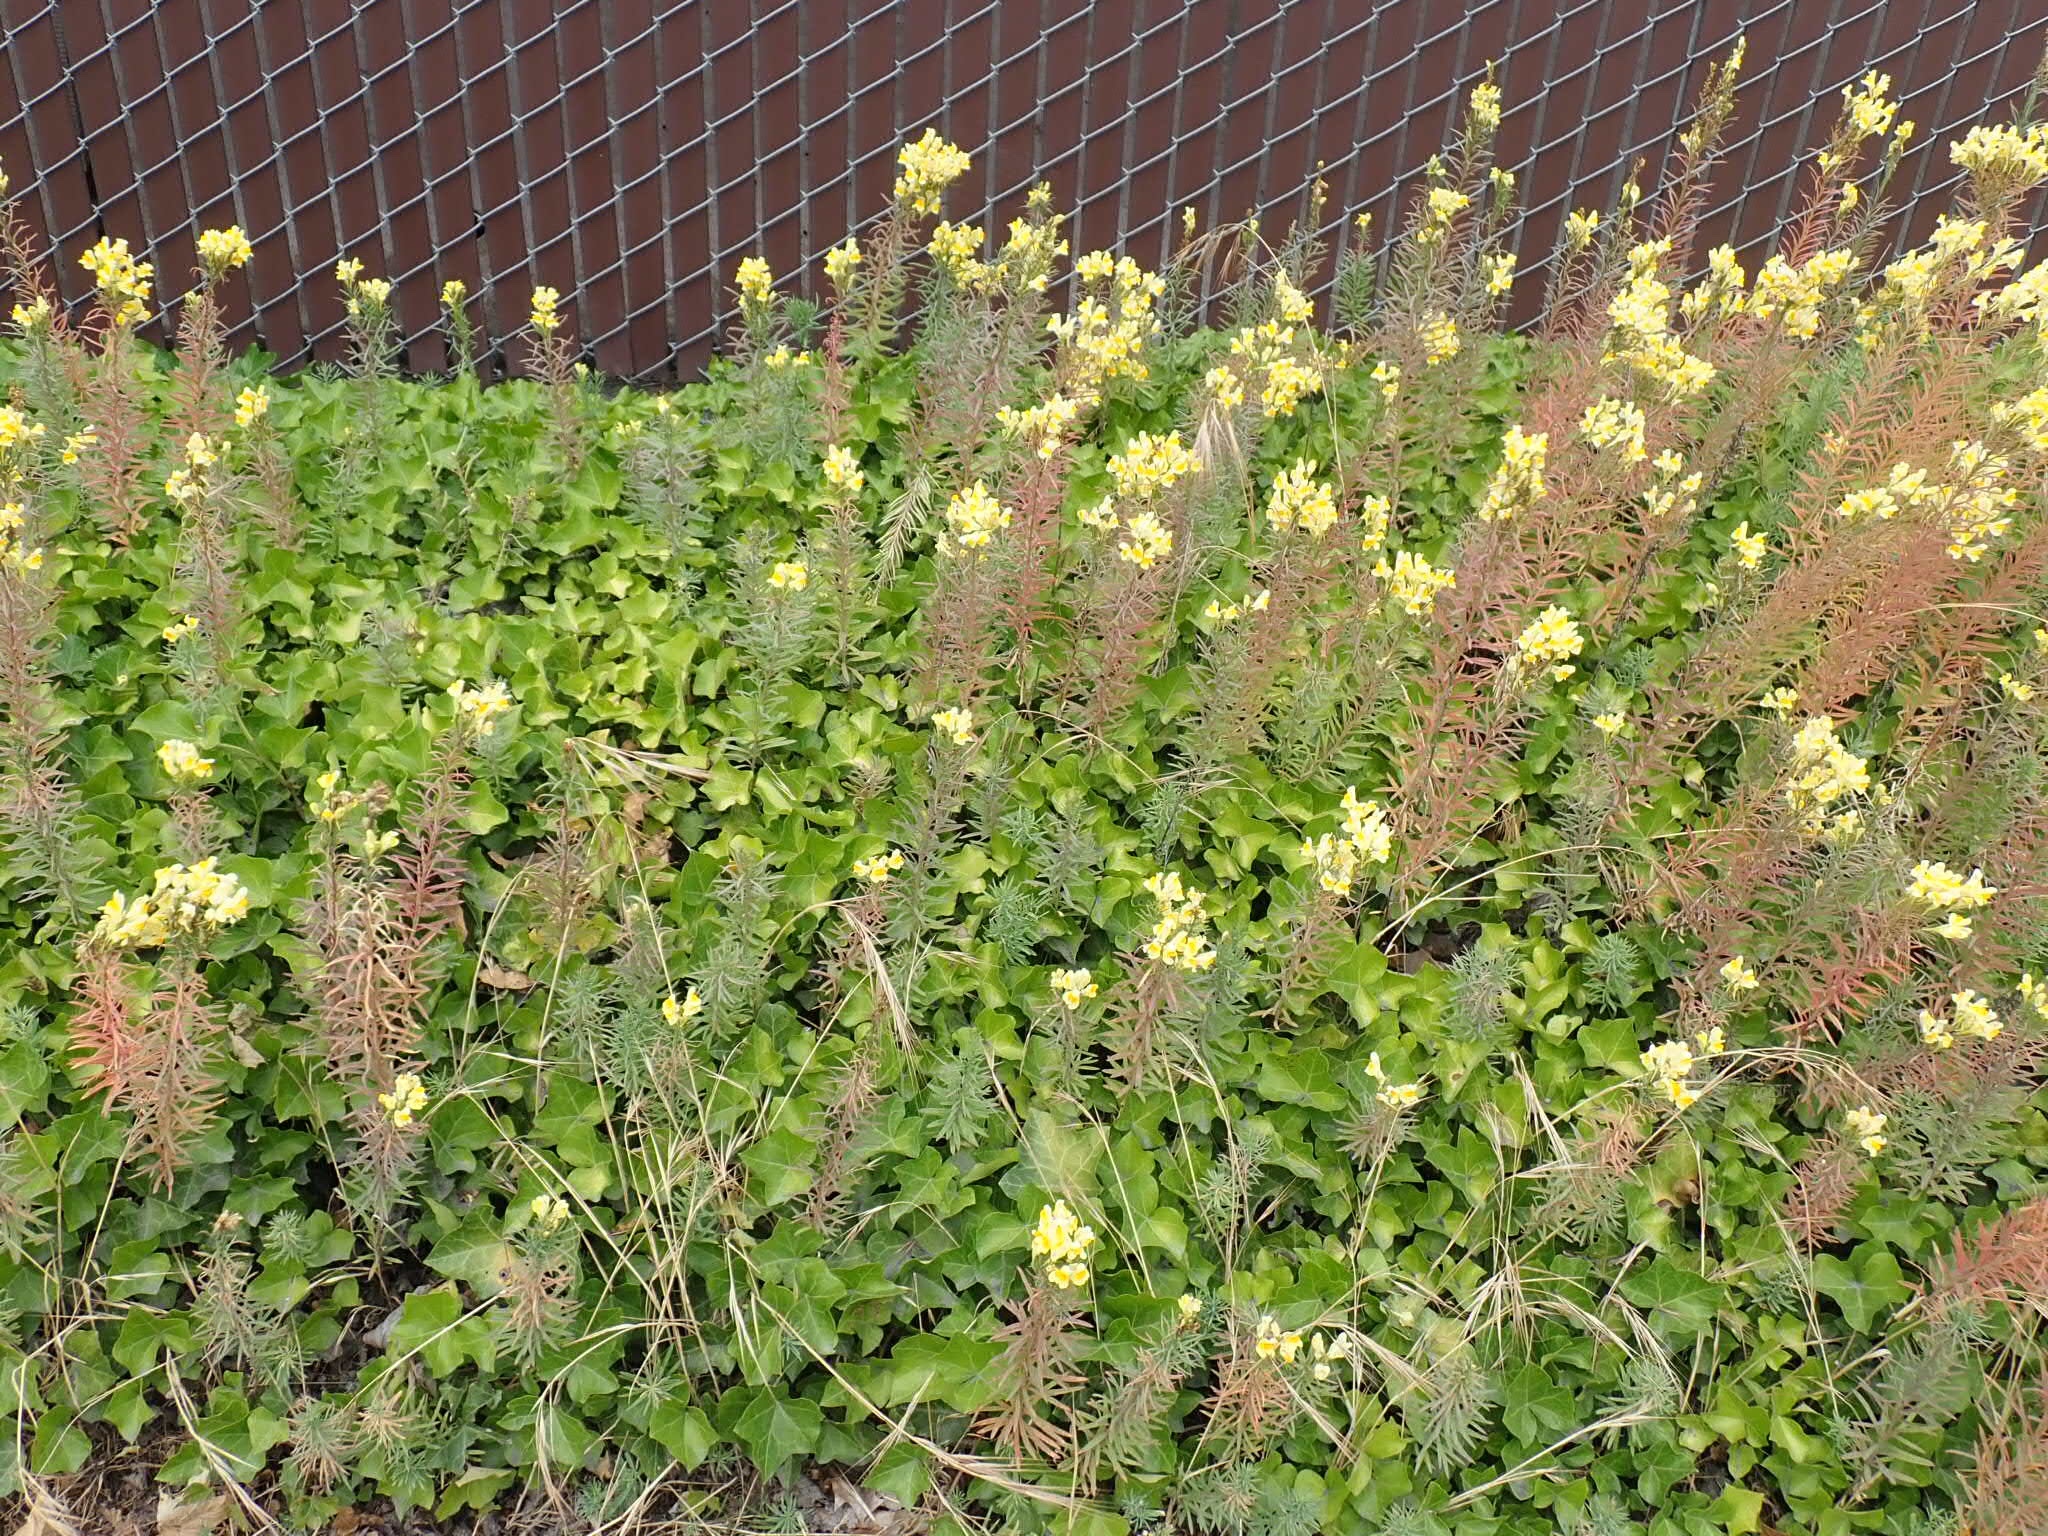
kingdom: Plantae
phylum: Tracheophyta
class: Magnoliopsida
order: Lamiales
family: Plantaginaceae
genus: Linaria
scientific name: Linaria vulgaris
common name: Butter and eggs
